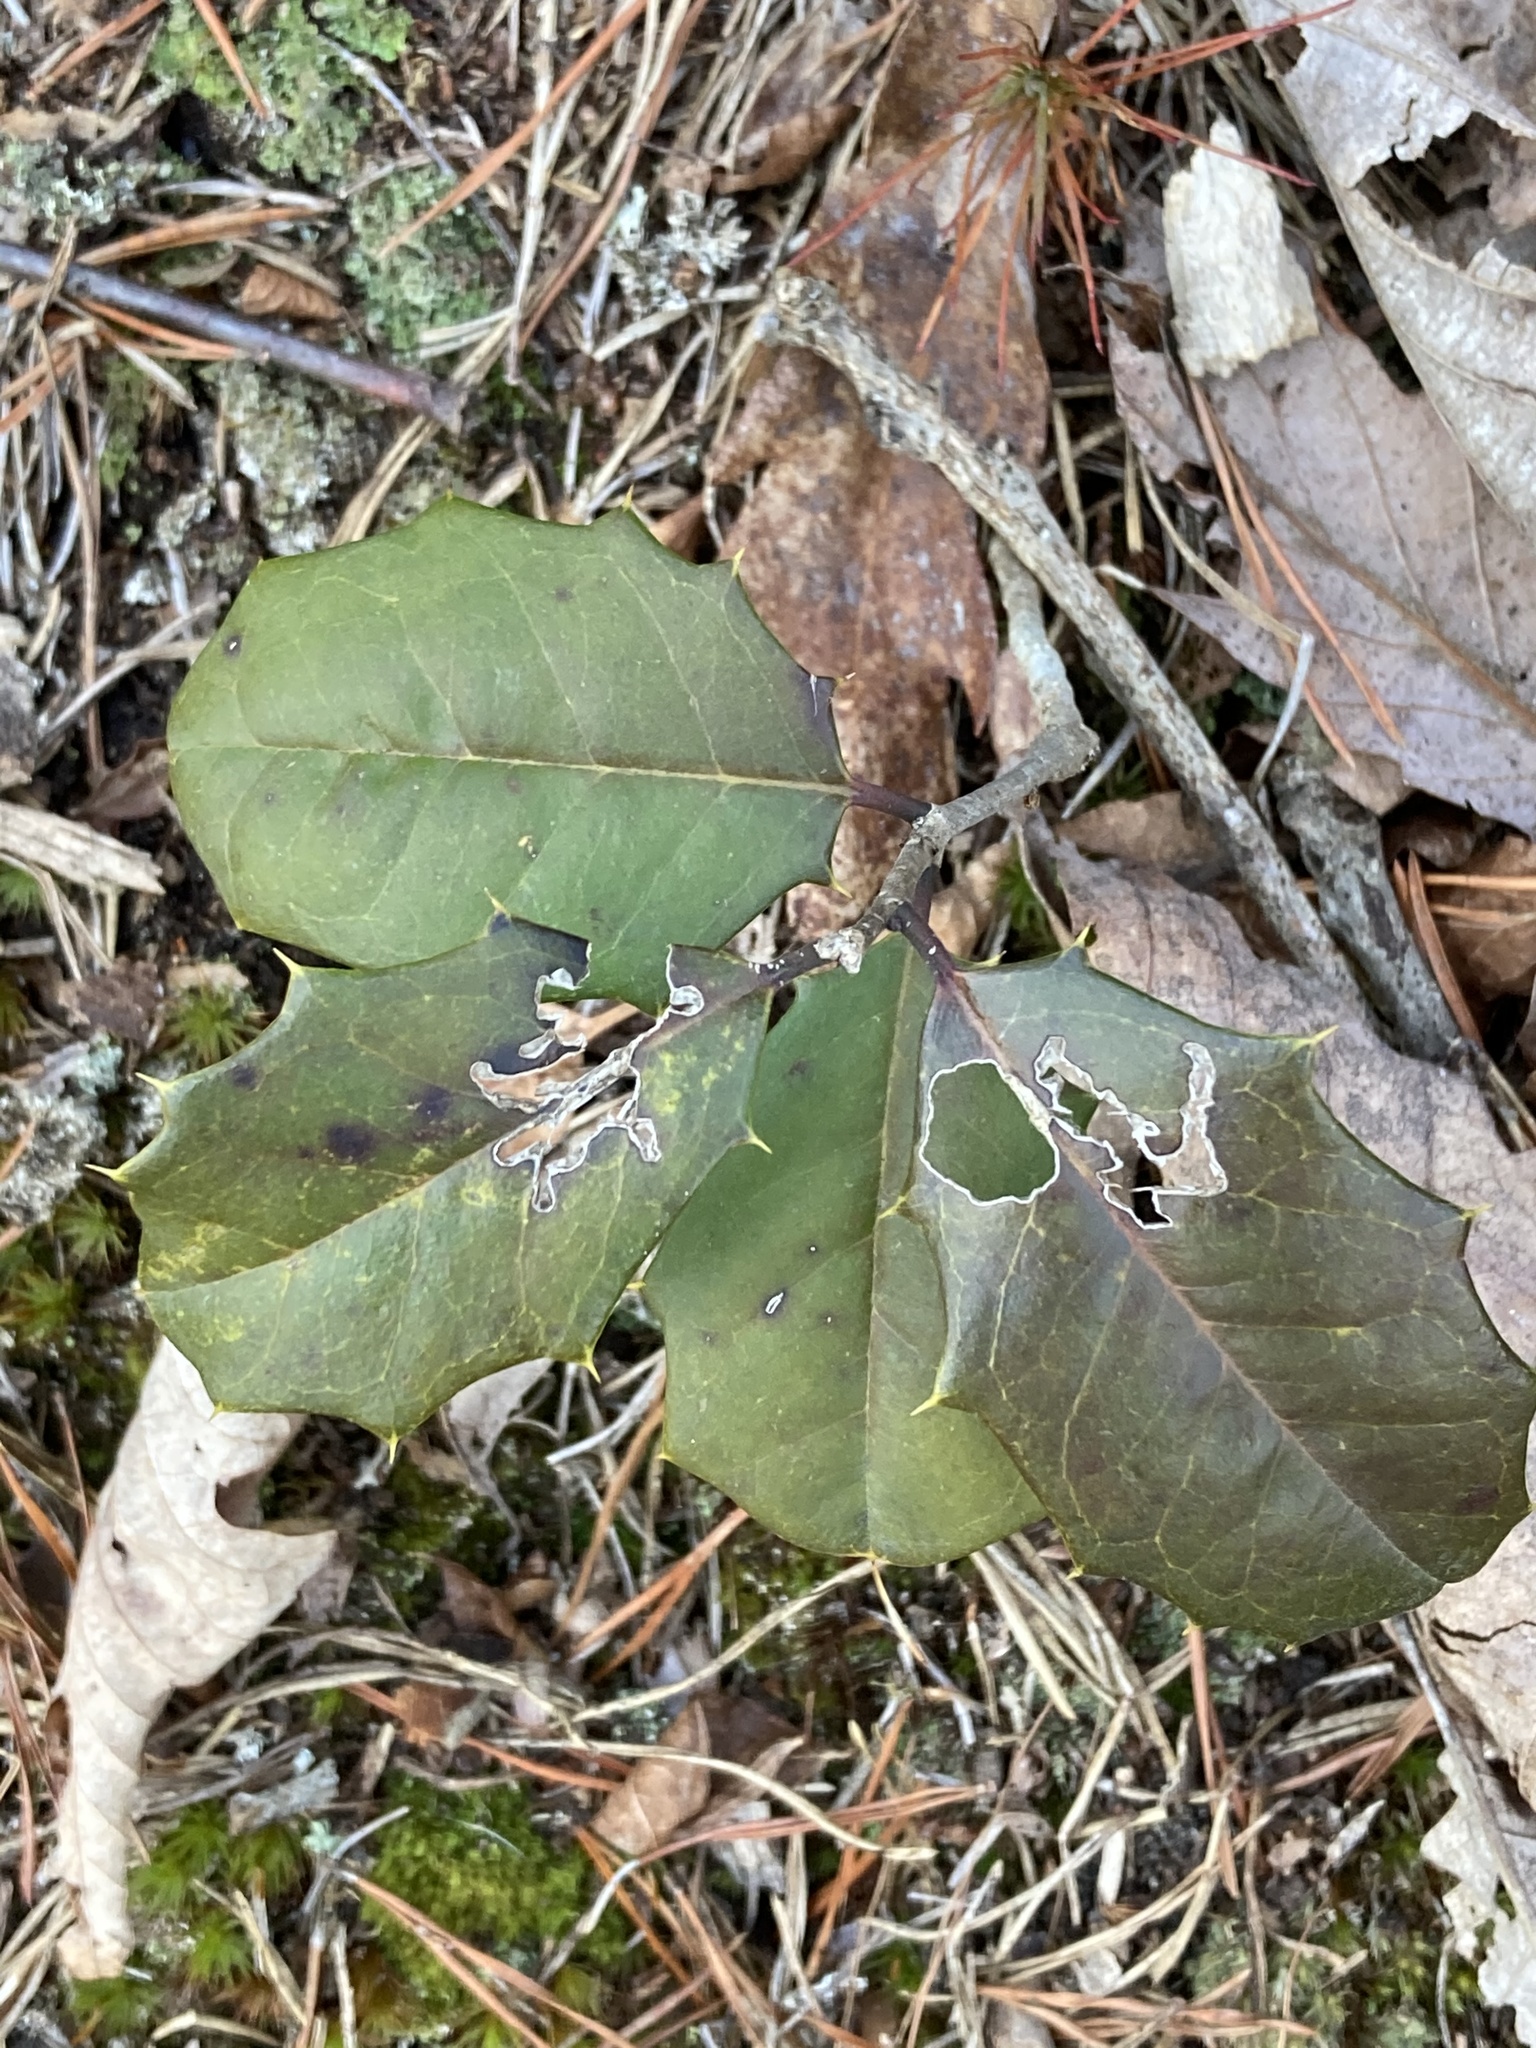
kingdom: Plantae
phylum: Tracheophyta
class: Magnoliopsida
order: Aquifoliales
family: Aquifoliaceae
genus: Ilex
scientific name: Ilex opaca
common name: American holly
